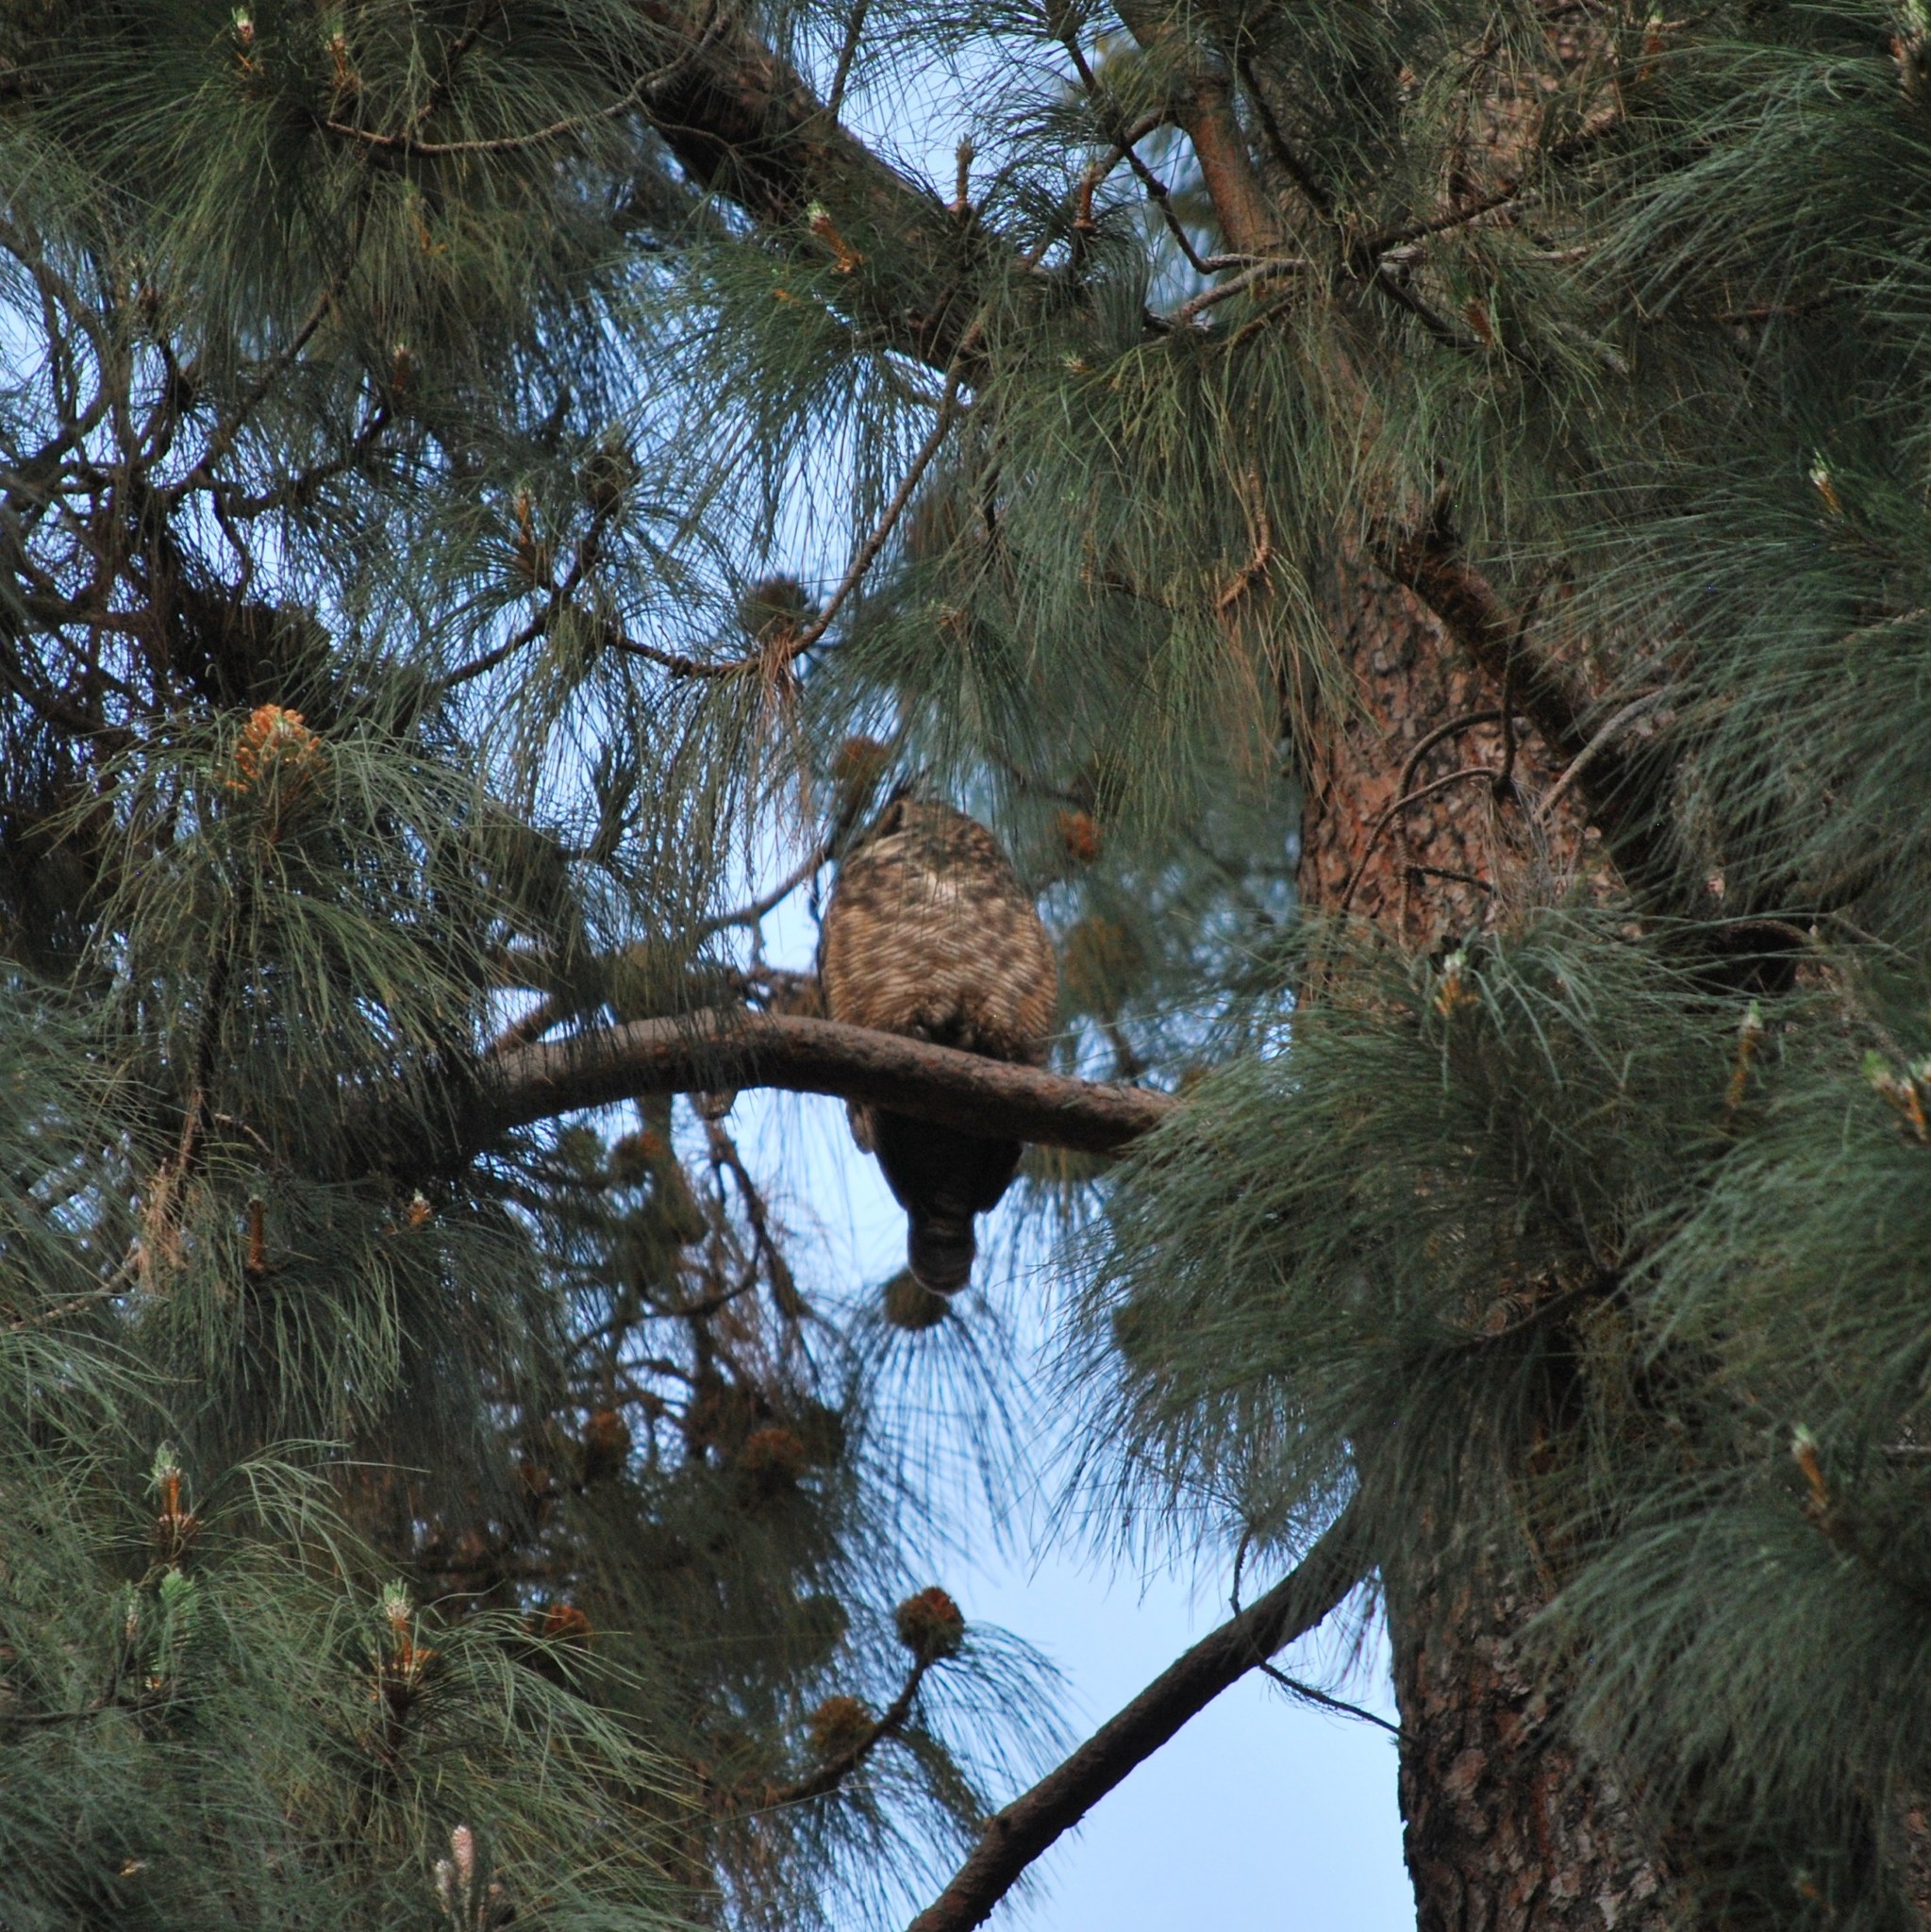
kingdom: Animalia
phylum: Chordata
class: Aves
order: Strigiformes
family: Strigidae
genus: Bubo
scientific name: Bubo virginianus
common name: Great horned owl
